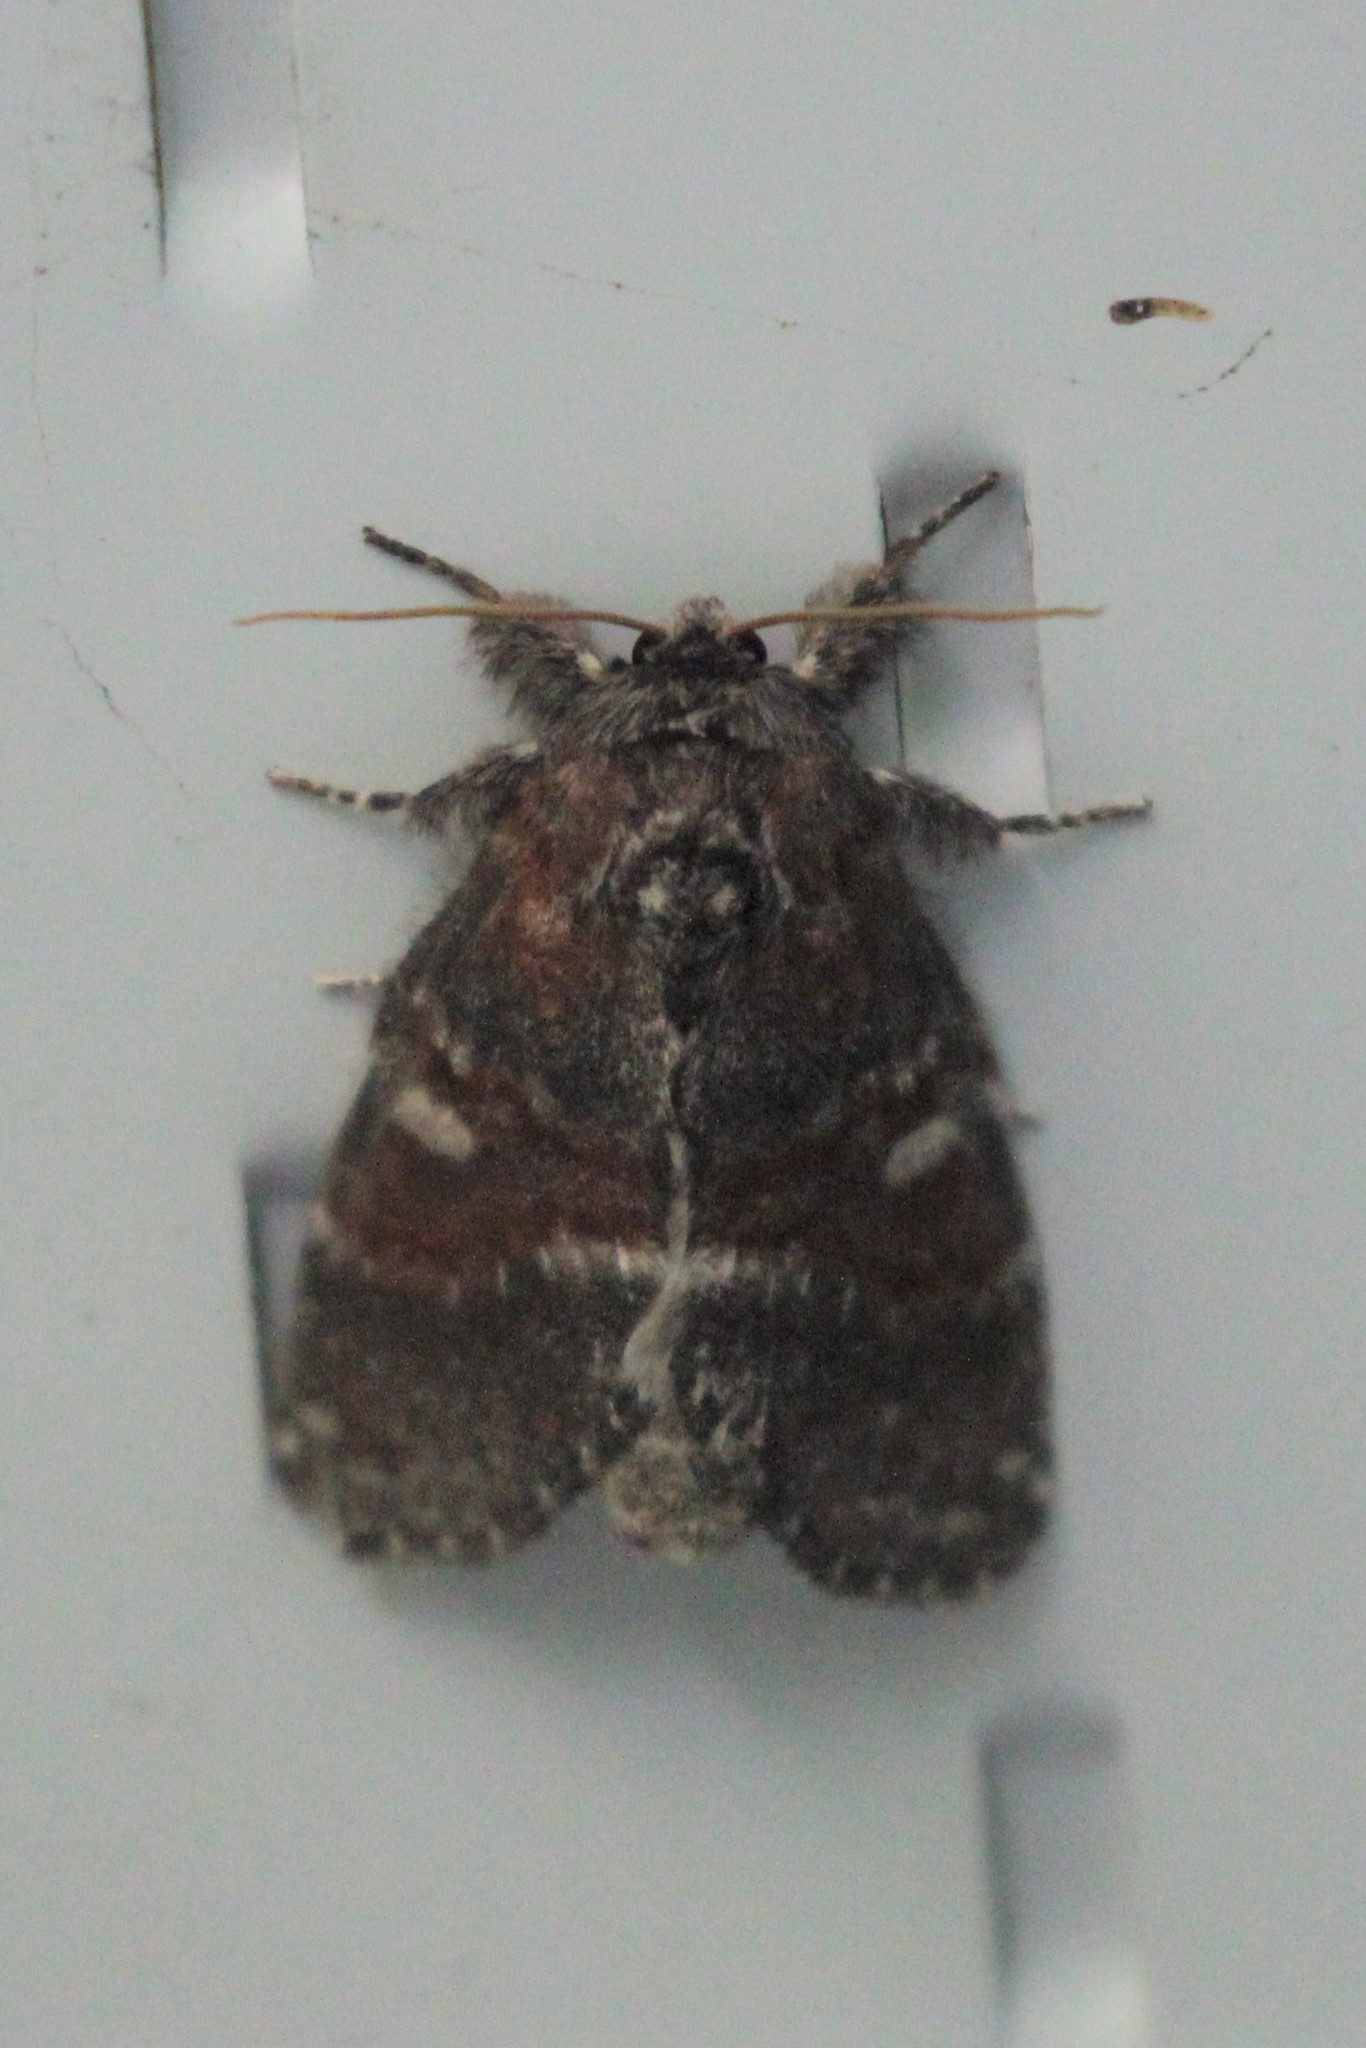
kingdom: Animalia
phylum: Arthropoda
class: Insecta
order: Lepidoptera
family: Notodontidae
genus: Peridea
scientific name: Peridea ferruginea
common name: Chocolate prominent
